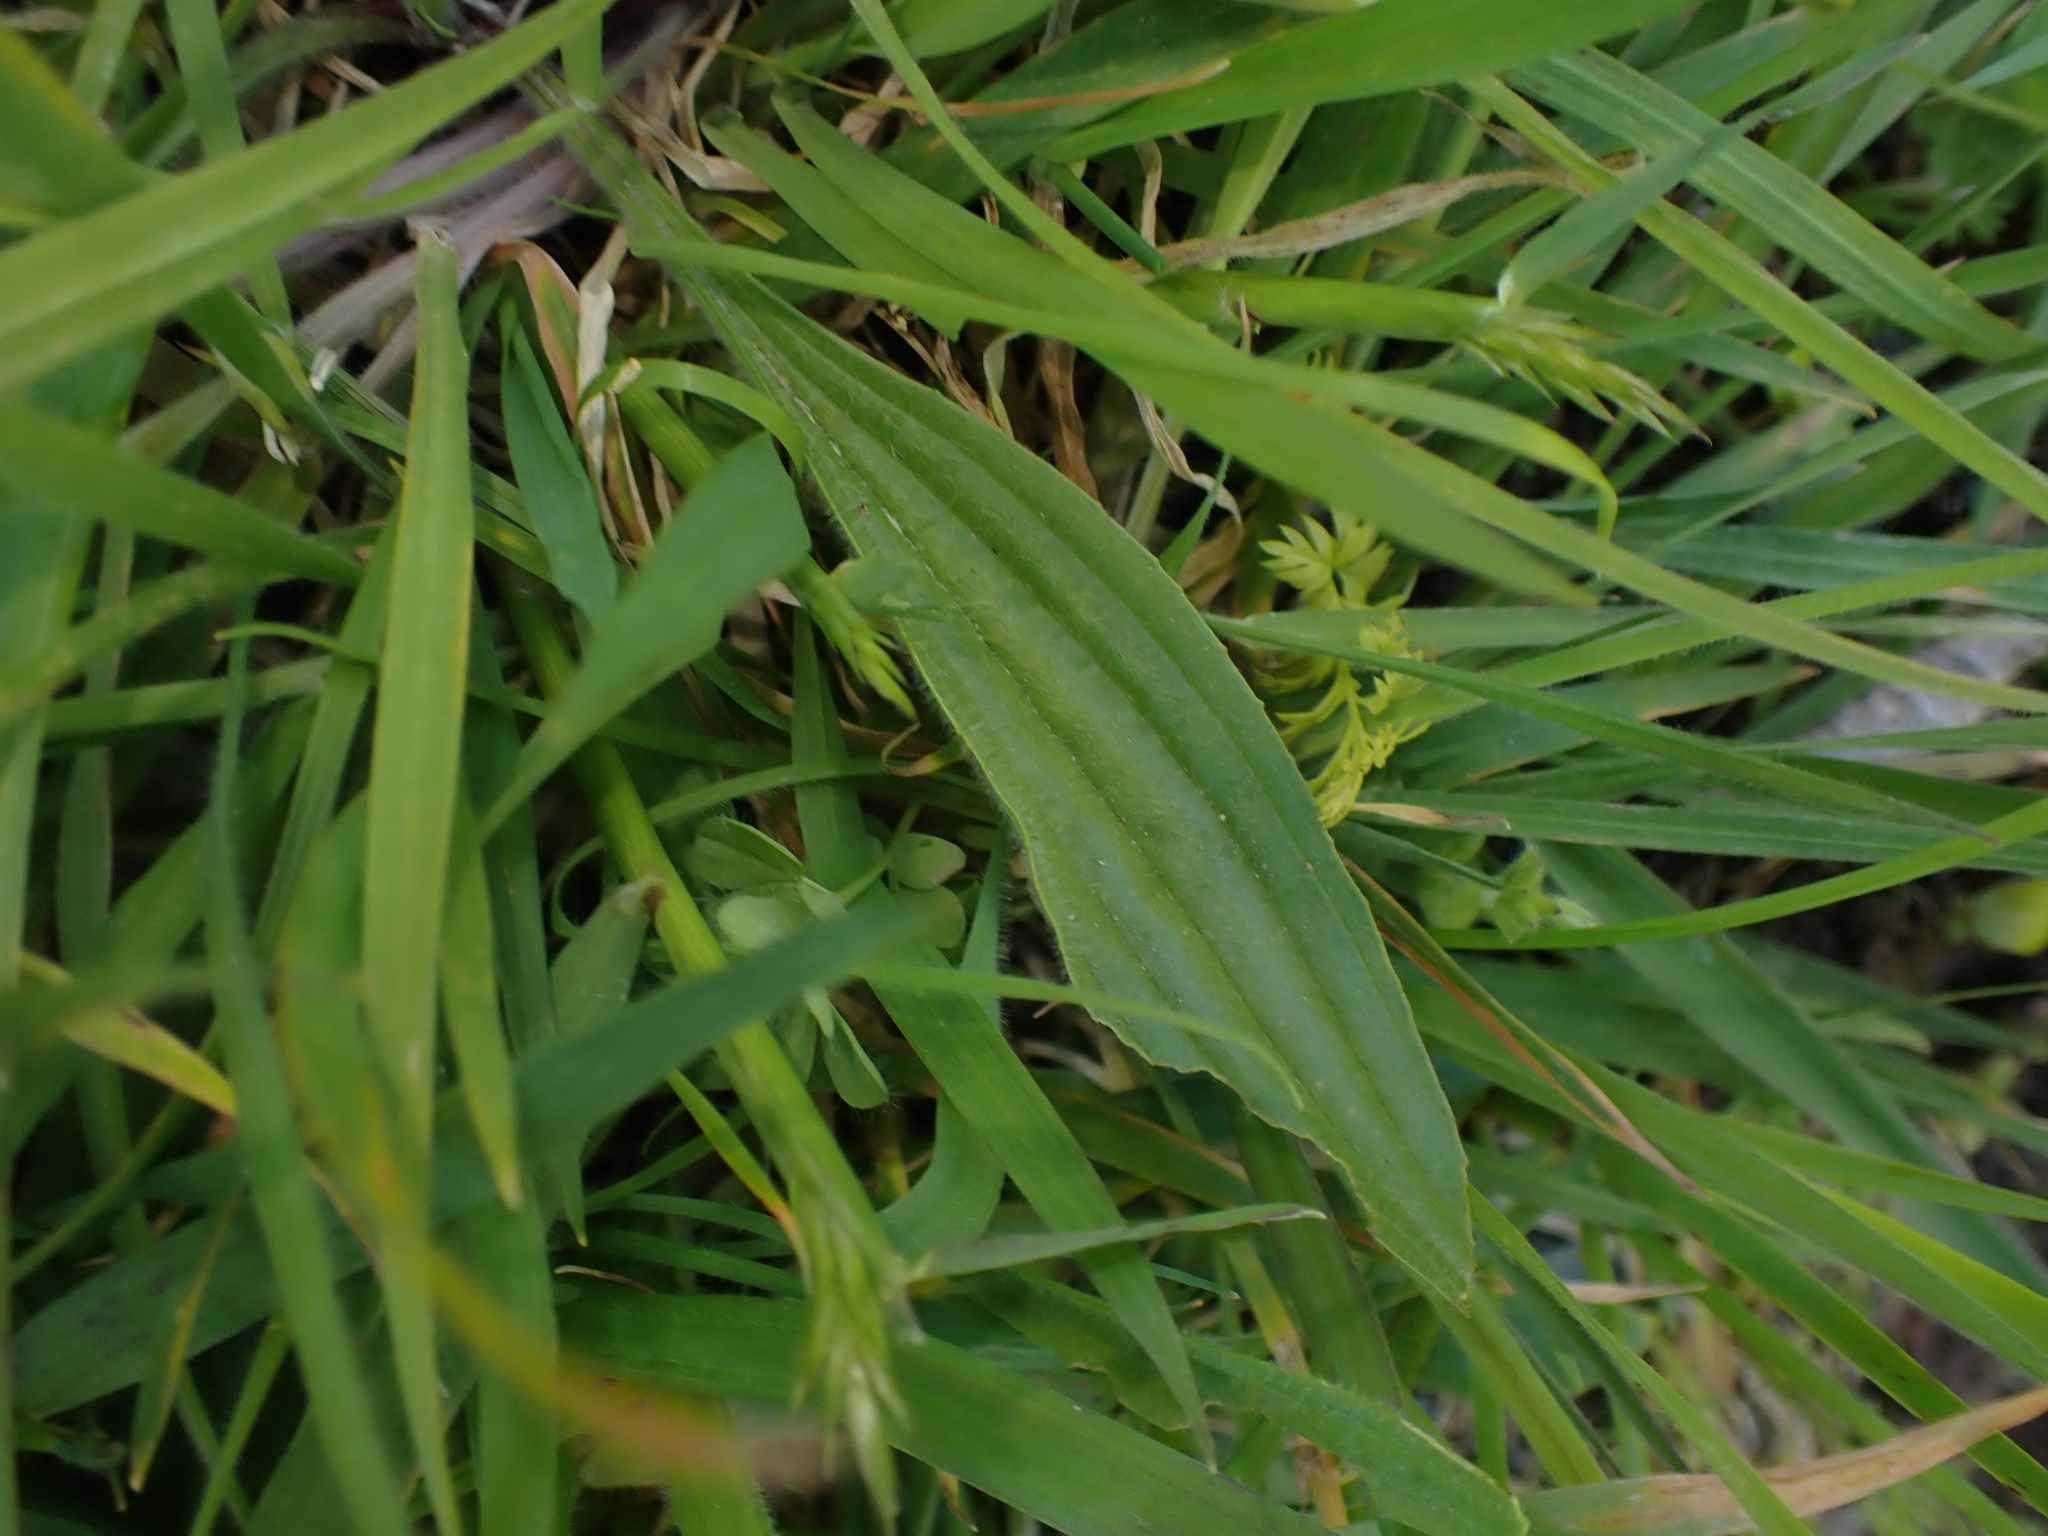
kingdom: Plantae
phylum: Tracheophyta
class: Magnoliopsida
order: Lamiales
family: Plantaginaceae
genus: Plantago
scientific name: Plantago lanceolata
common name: Ribwort plantain
